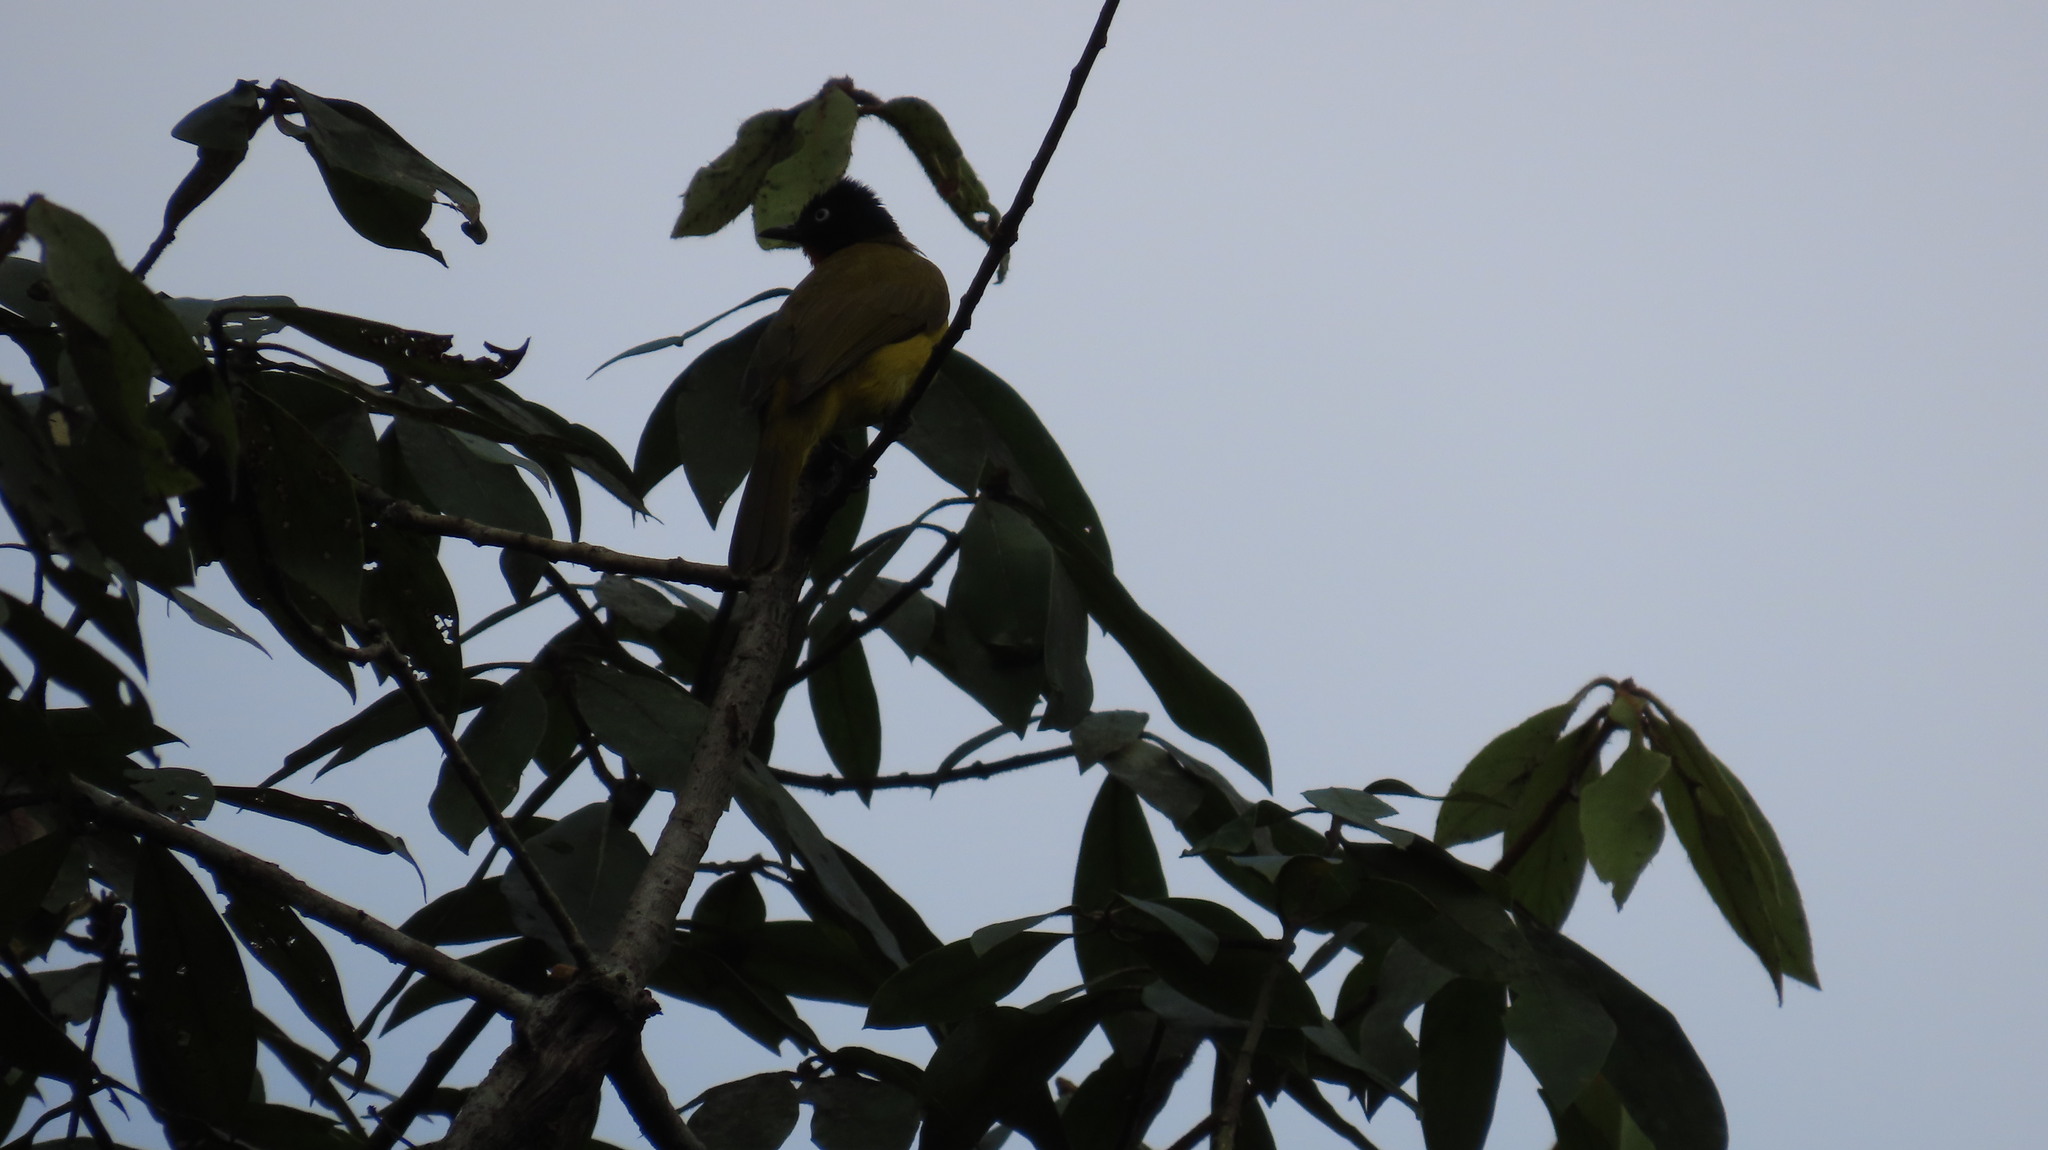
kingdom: Animalia
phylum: Chordata
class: Aves
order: Passeriformes
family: Pycnonotidae
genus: Pycnonotus
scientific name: Pycnonotus gularis
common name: Flame-throated bulbul
